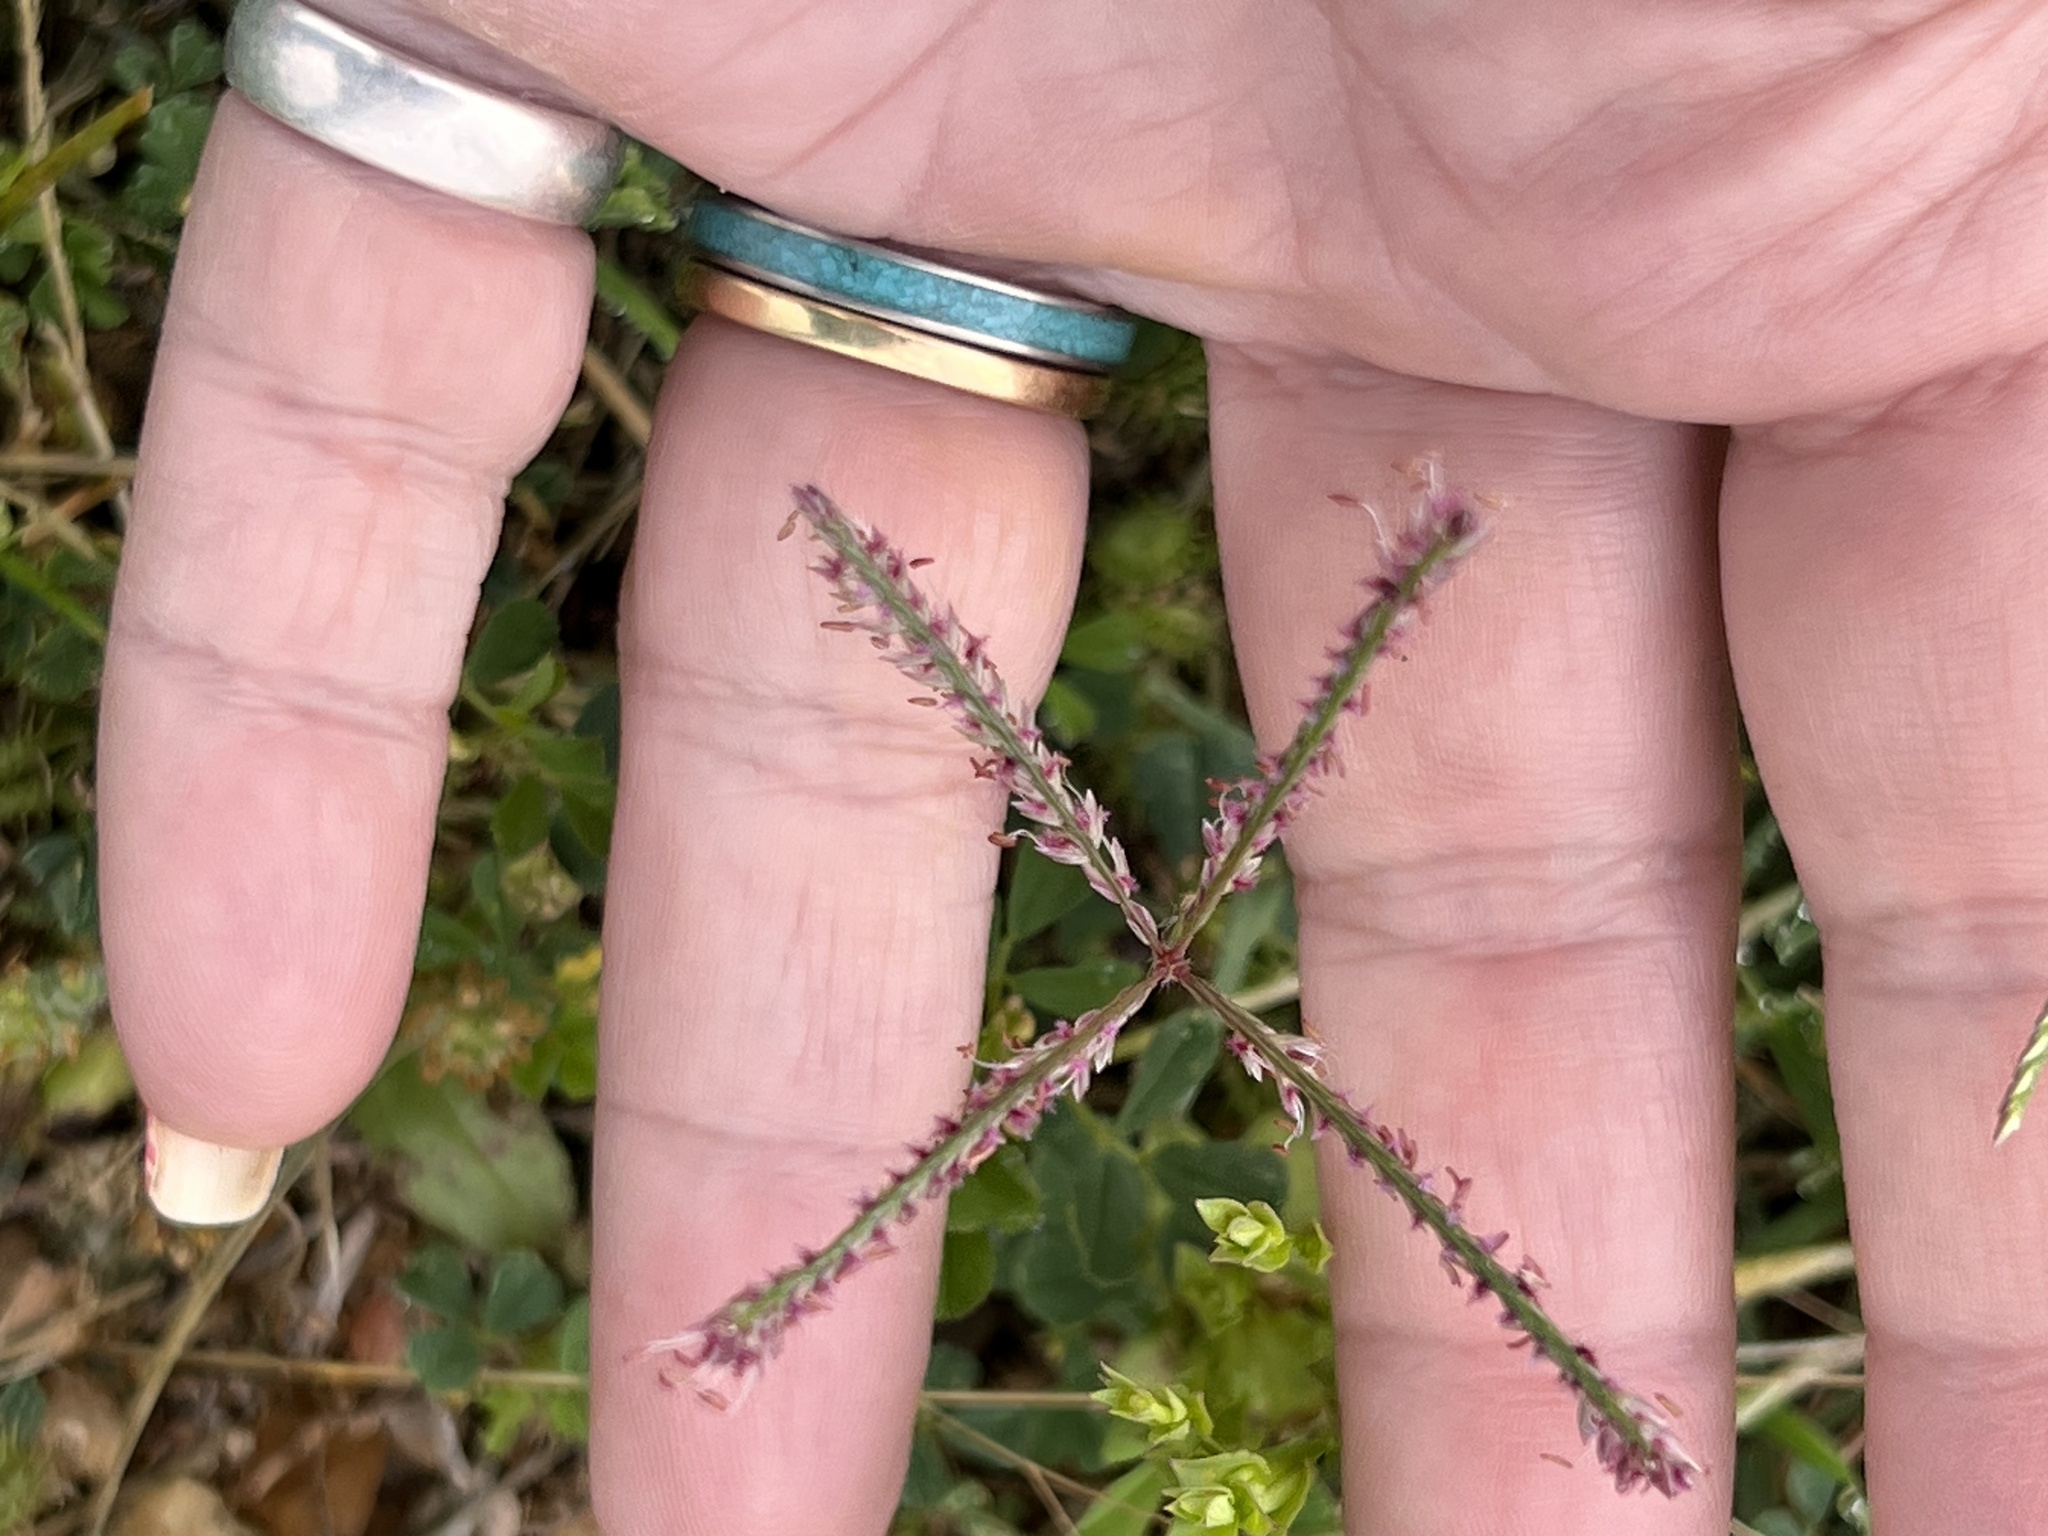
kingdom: Plantae
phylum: Tracheophyta
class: Liliopsida
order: Poales
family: Poaceae
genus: Cynodon
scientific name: Cynodon dactylon
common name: Bermuda grass
